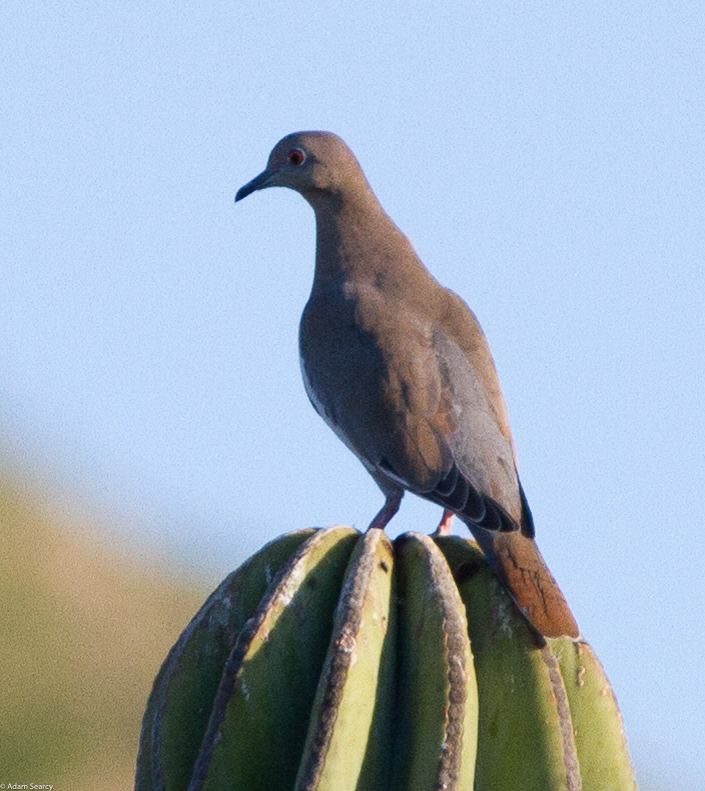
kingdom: Animalia
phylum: Chordata
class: Aves
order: Columbiformes
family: Columbidae
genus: Zenaida
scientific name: Zenaida asiatica
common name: White-winged dove
